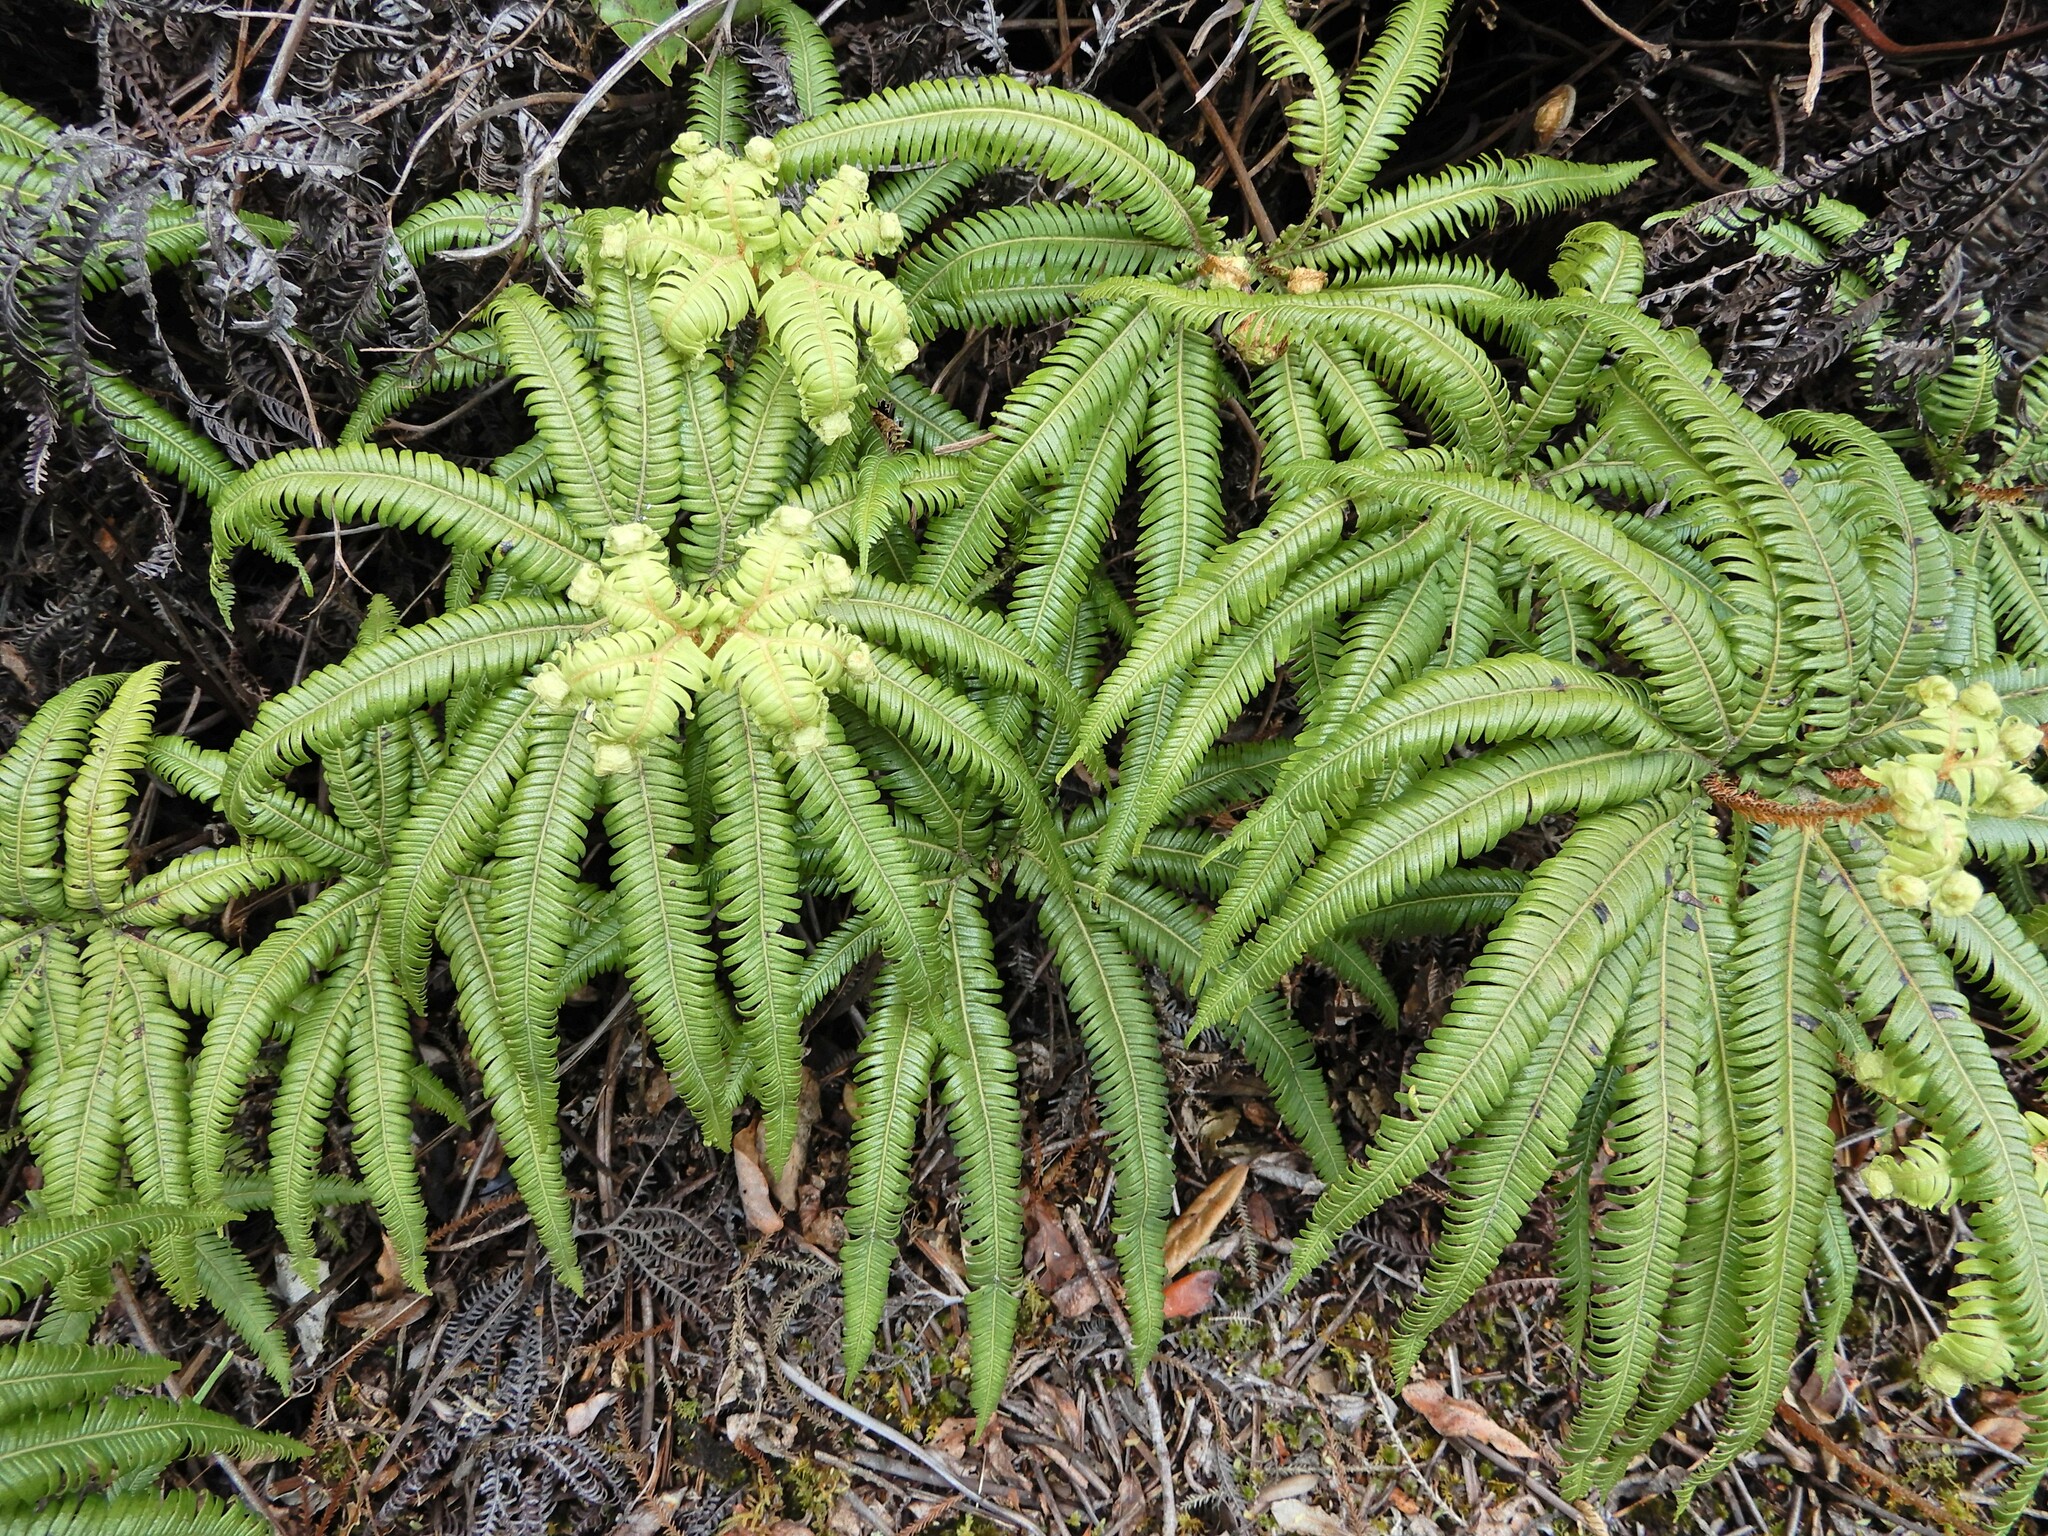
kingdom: Plantae
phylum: Tracheophyta
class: Polypodiopsida
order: Gleicheniales
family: Gleicheniaceae
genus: Sticherus
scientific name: Sticherus cunninghamii
